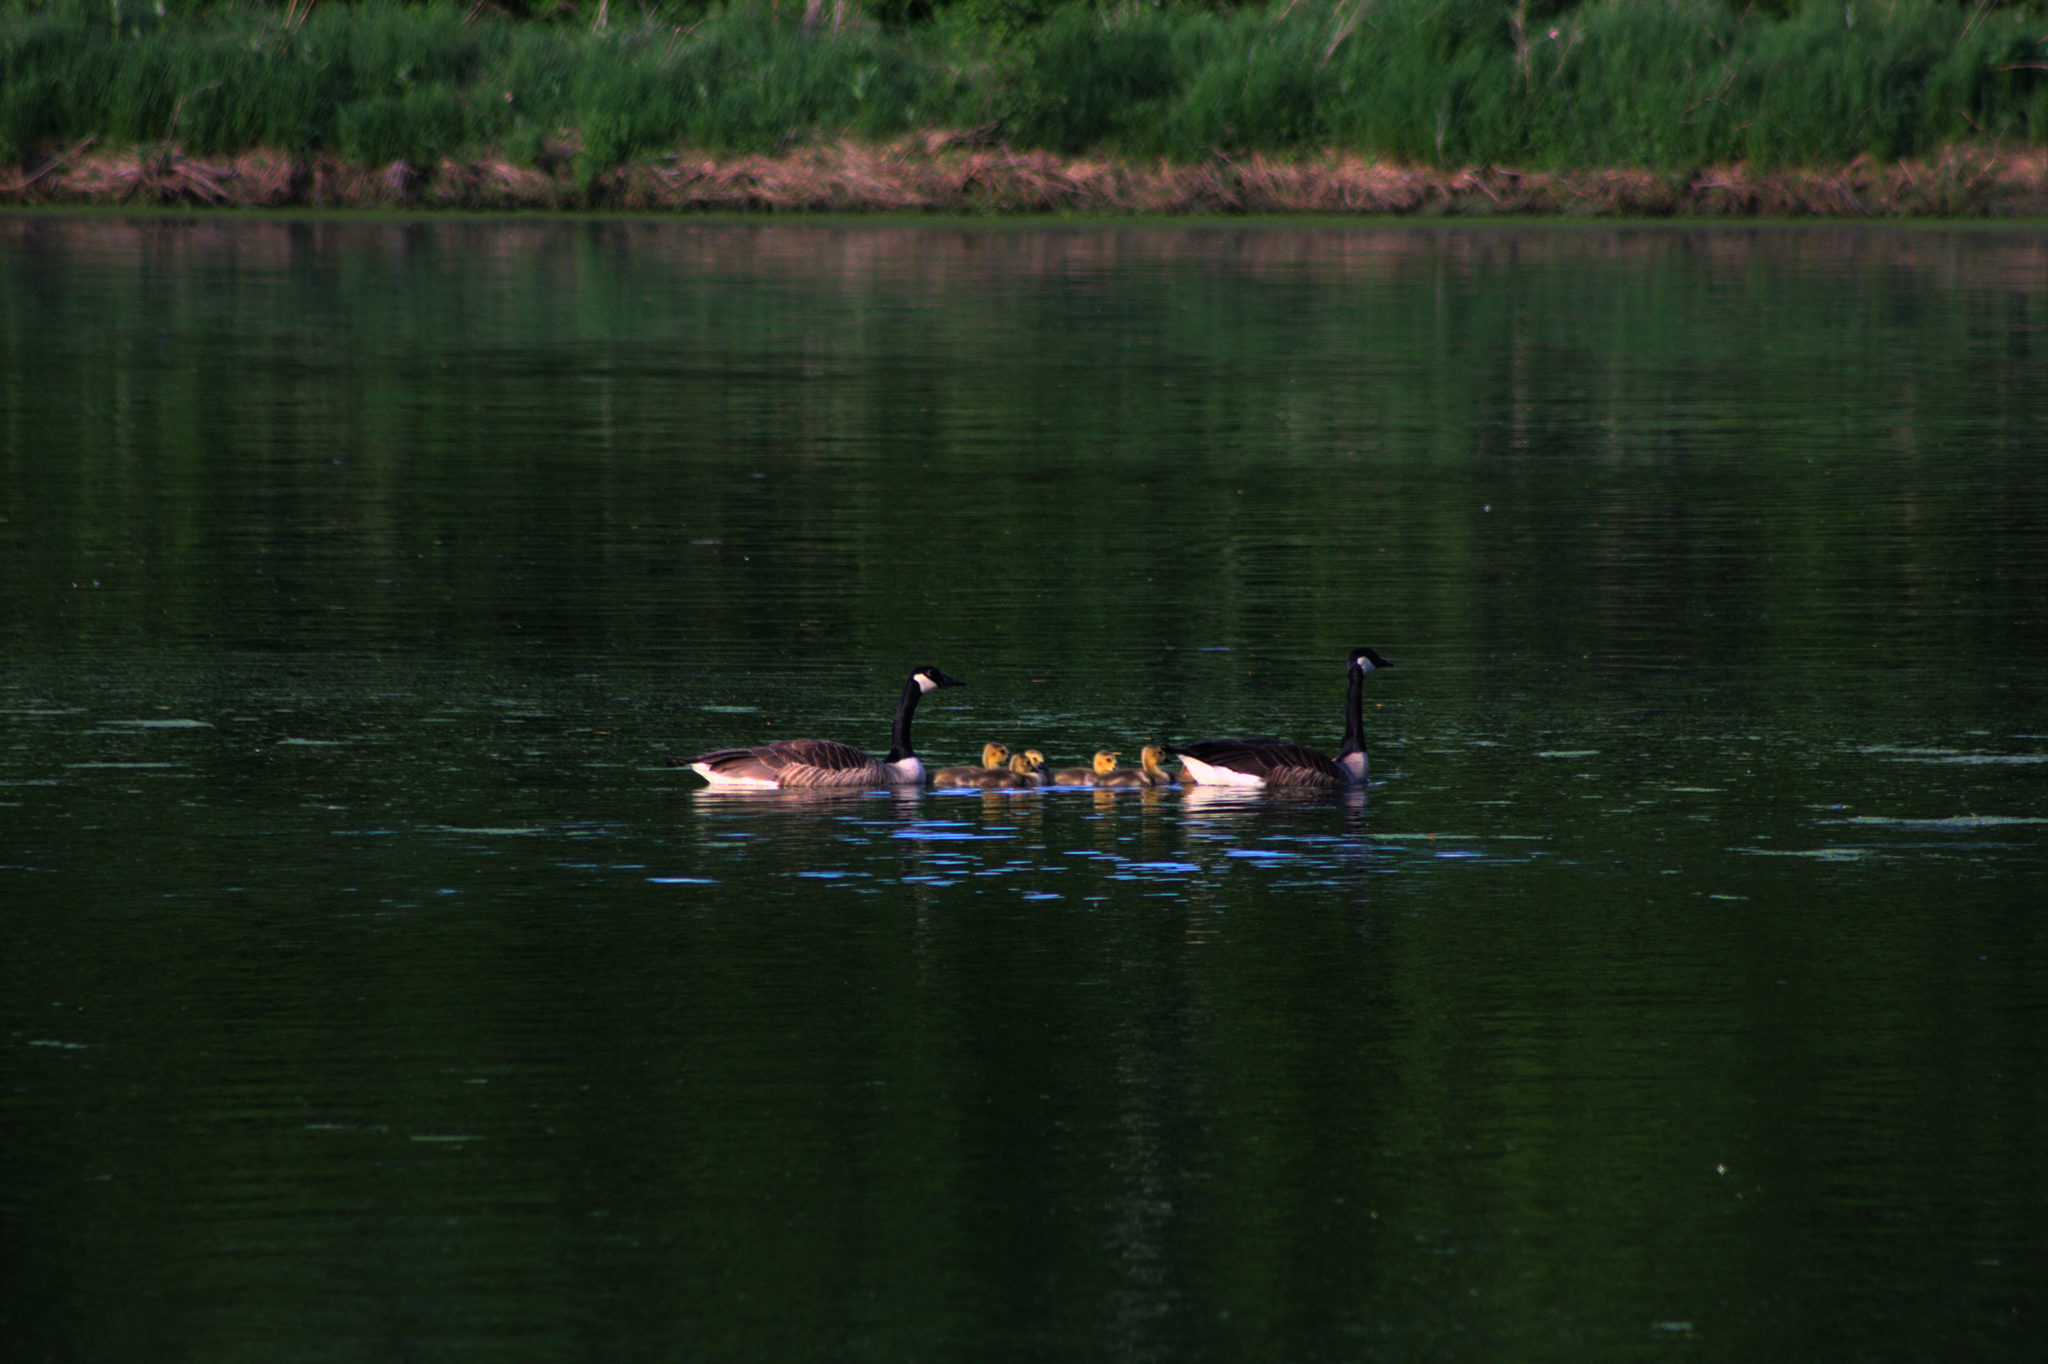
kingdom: Animalia
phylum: Chordata
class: Aves
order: Anseriformes
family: Anatidae
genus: Branta
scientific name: Branta canadensis
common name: Canada goose
